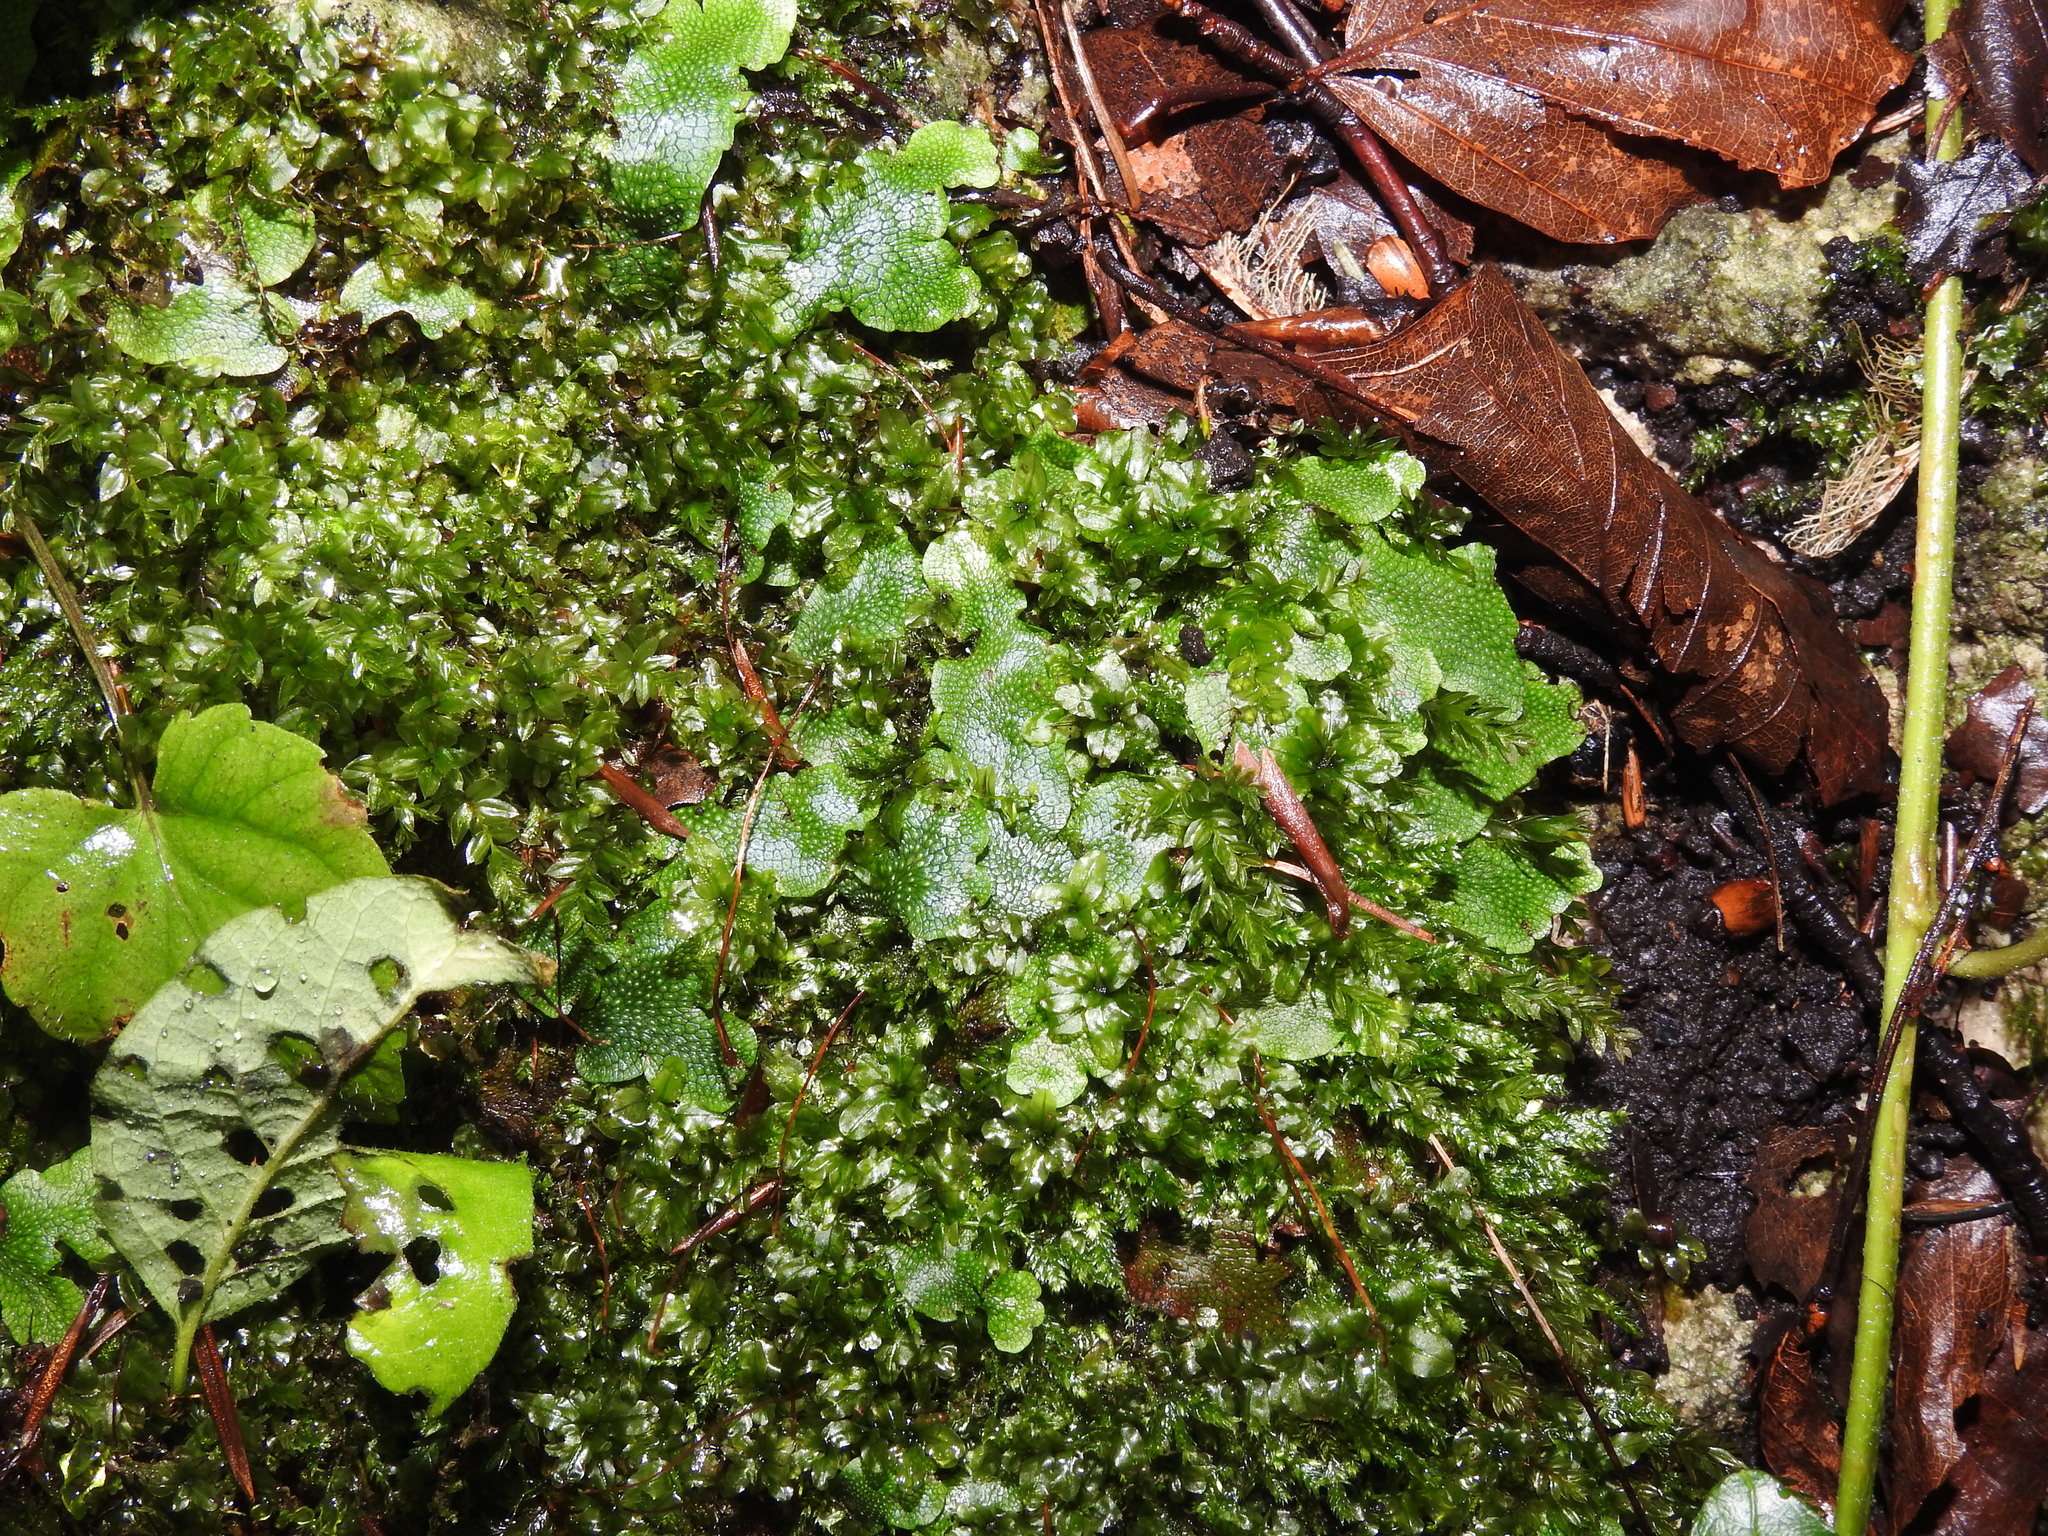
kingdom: Plantae
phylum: Marchantiophyta
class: Marchantiopsida
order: Marchantiales
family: Conocephalaceae
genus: Conocephalum
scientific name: Conocephalum salebrosum
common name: Cat-tongue liverwort
